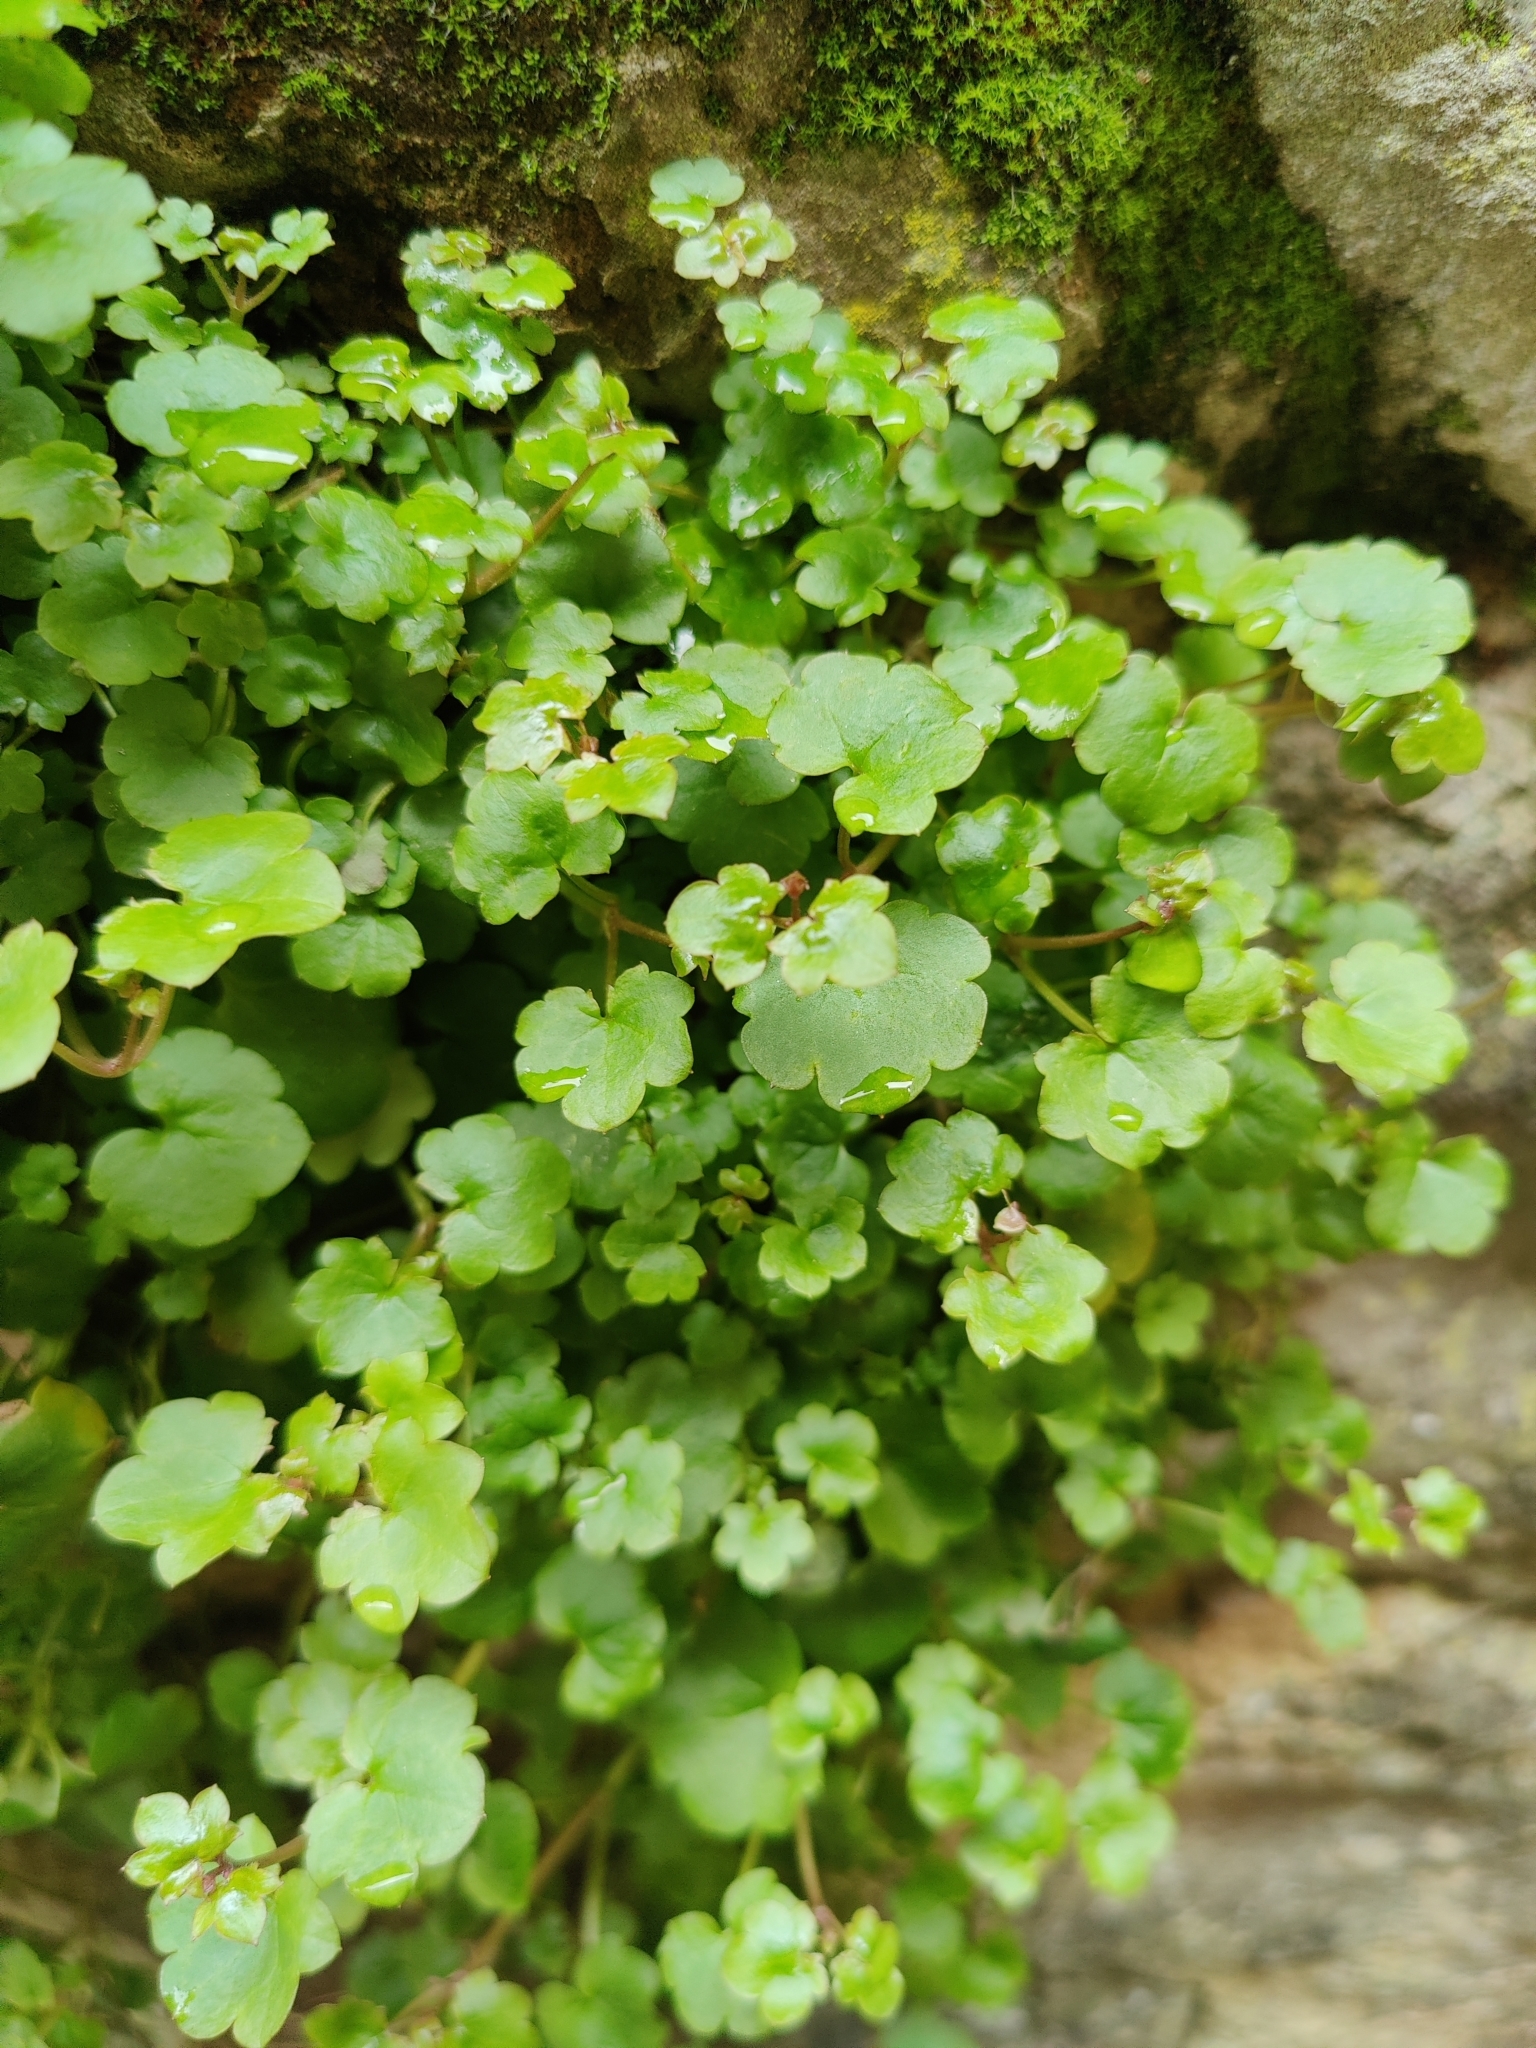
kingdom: Plantae
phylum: Tracheophyta
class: Magnoliopsida
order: Lamiales
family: Plantaginaceae
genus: Cymbalaria
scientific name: Cymbalaria muralis
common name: Ivy-leaved toadflax
